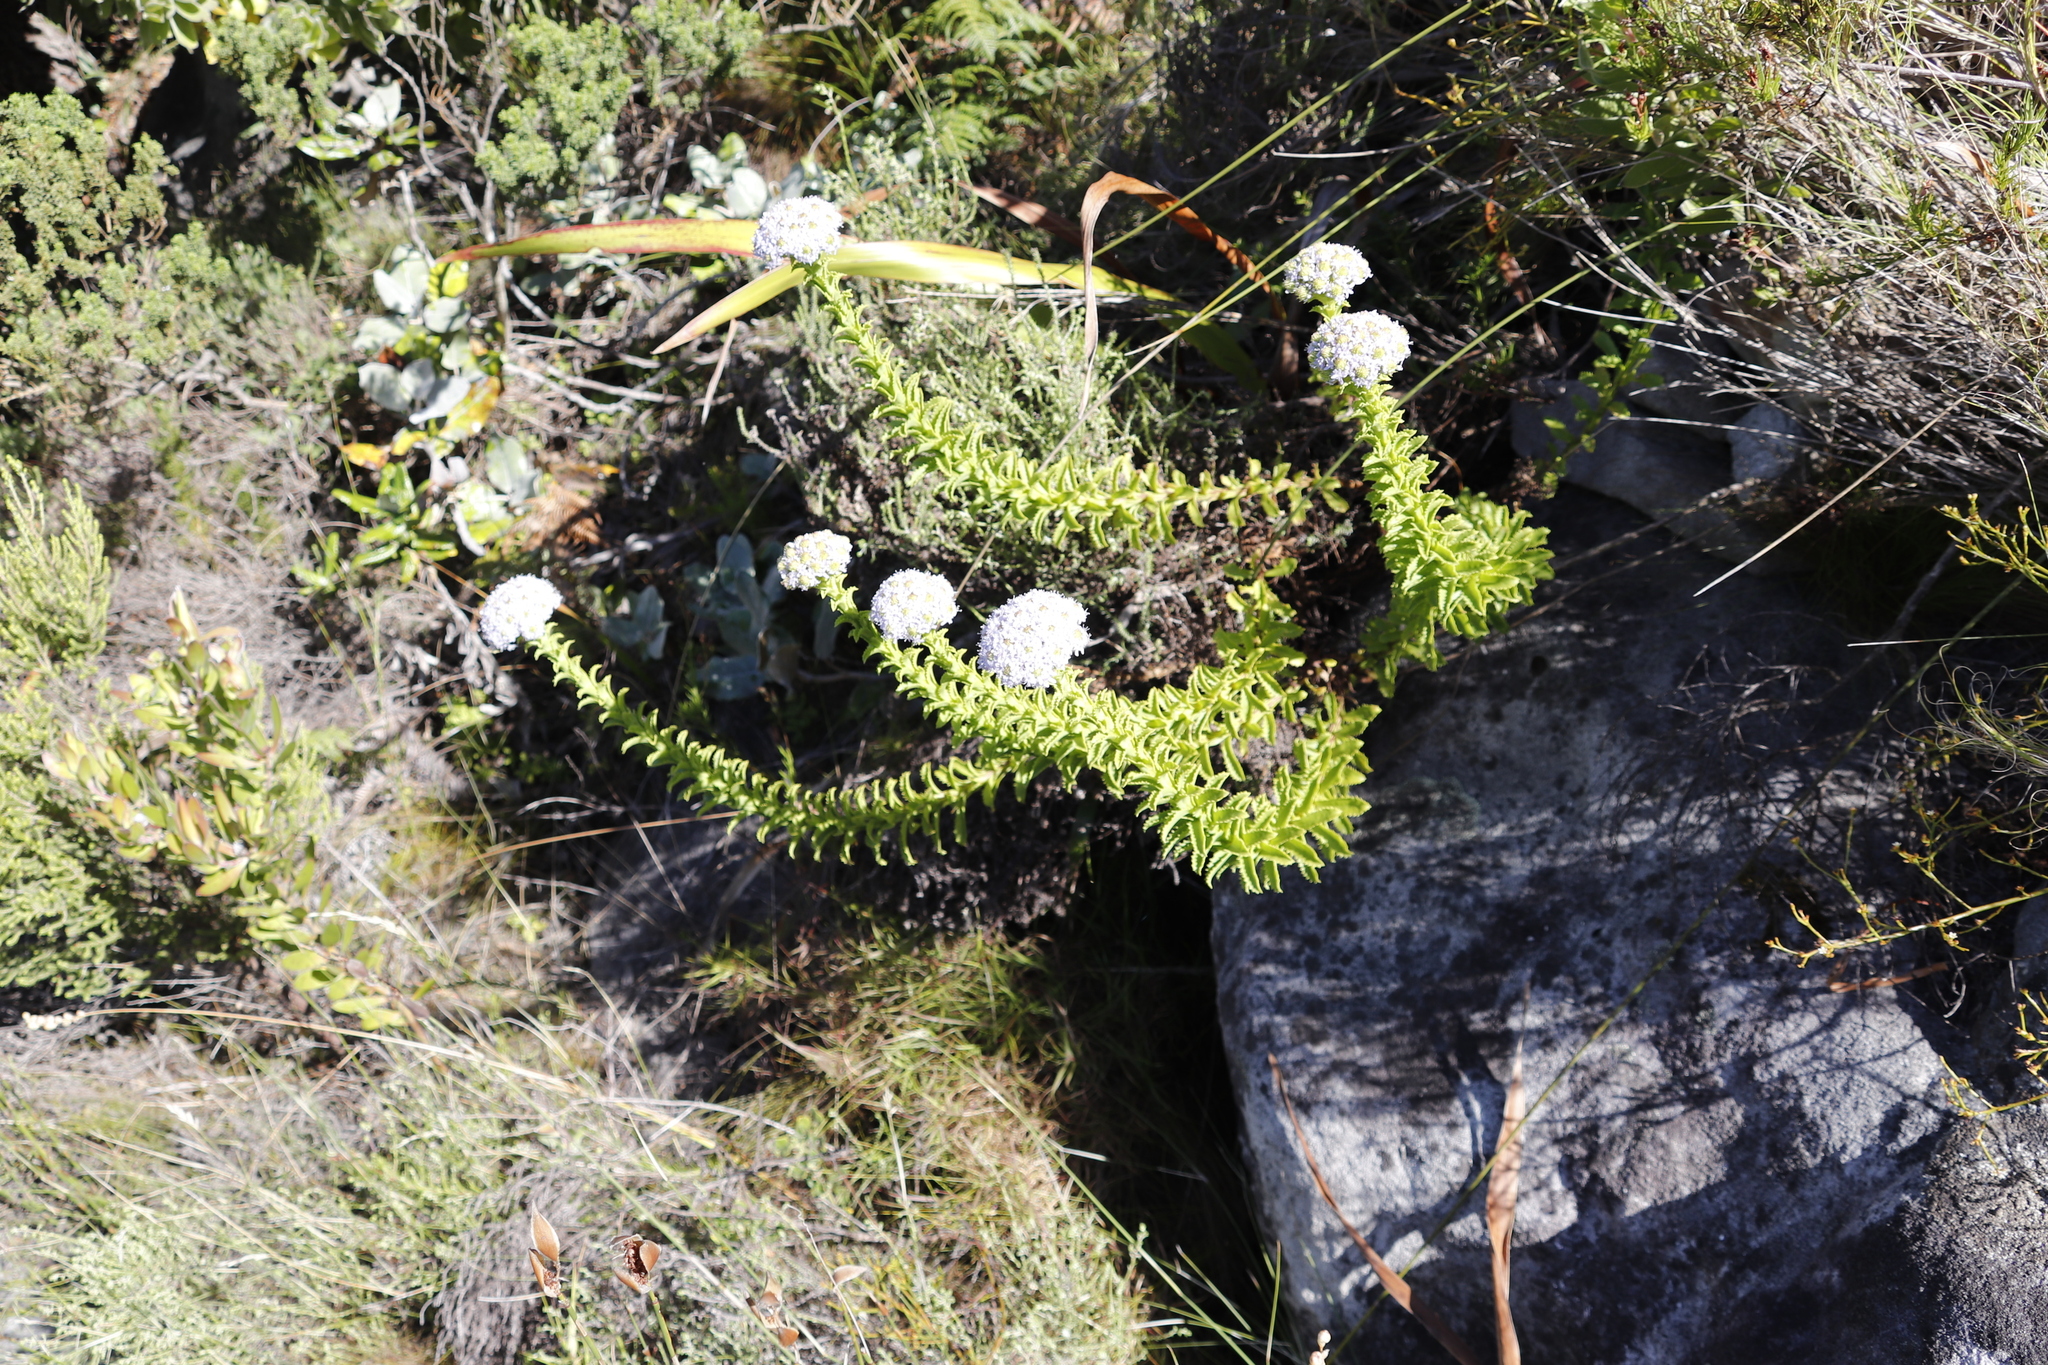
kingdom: Plantae
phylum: Tracheophyta
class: Magnoliopsida
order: Lamiales
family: Scrophulariaceae
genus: Pseudoselago
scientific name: Pseudoselago serrata
